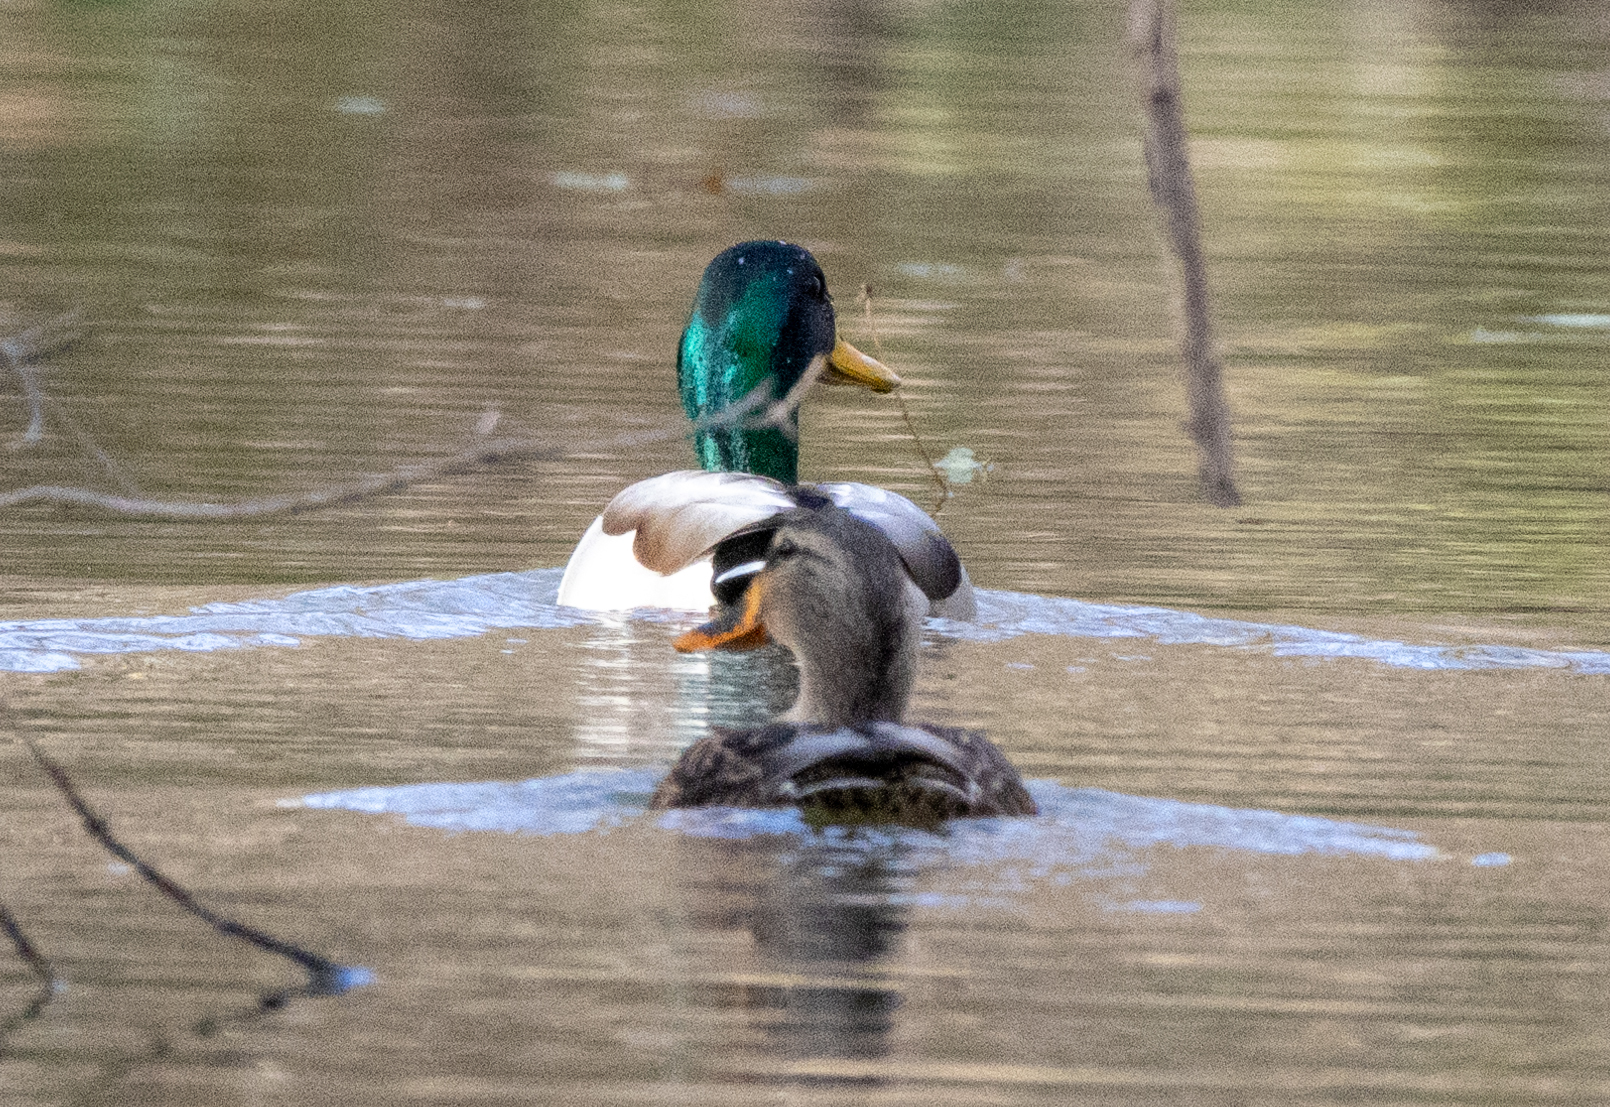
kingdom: Animalia
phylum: Chordata
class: Aves
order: Anseriformes
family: Anatidae
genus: Anas
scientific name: Anas platyrhynchos
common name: Mallard
